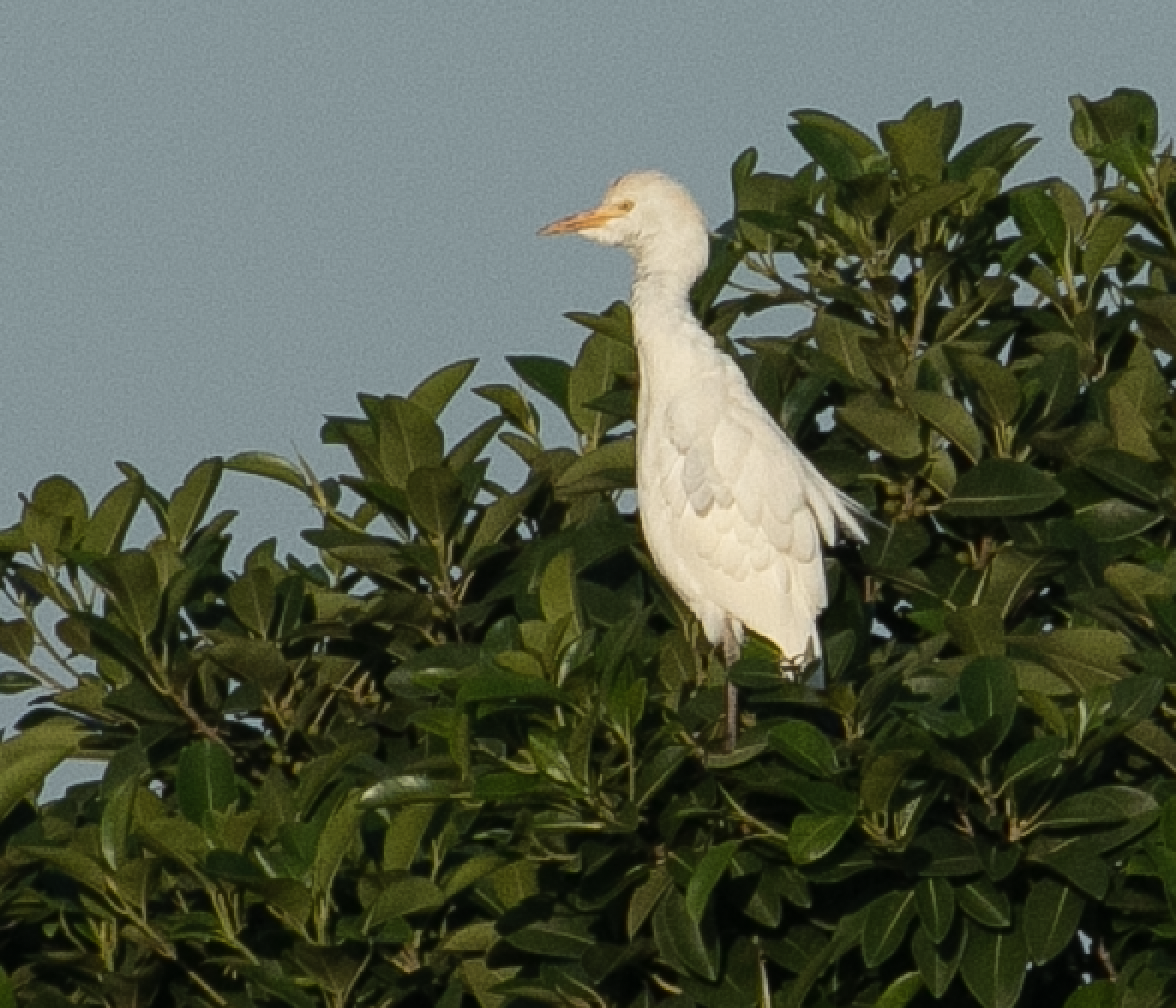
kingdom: Animalia
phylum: Chordata
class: Aves
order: Pelecaniformes
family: Ardeidae
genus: Bubulcus
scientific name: Bubulcus ibis
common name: Cattle egret
